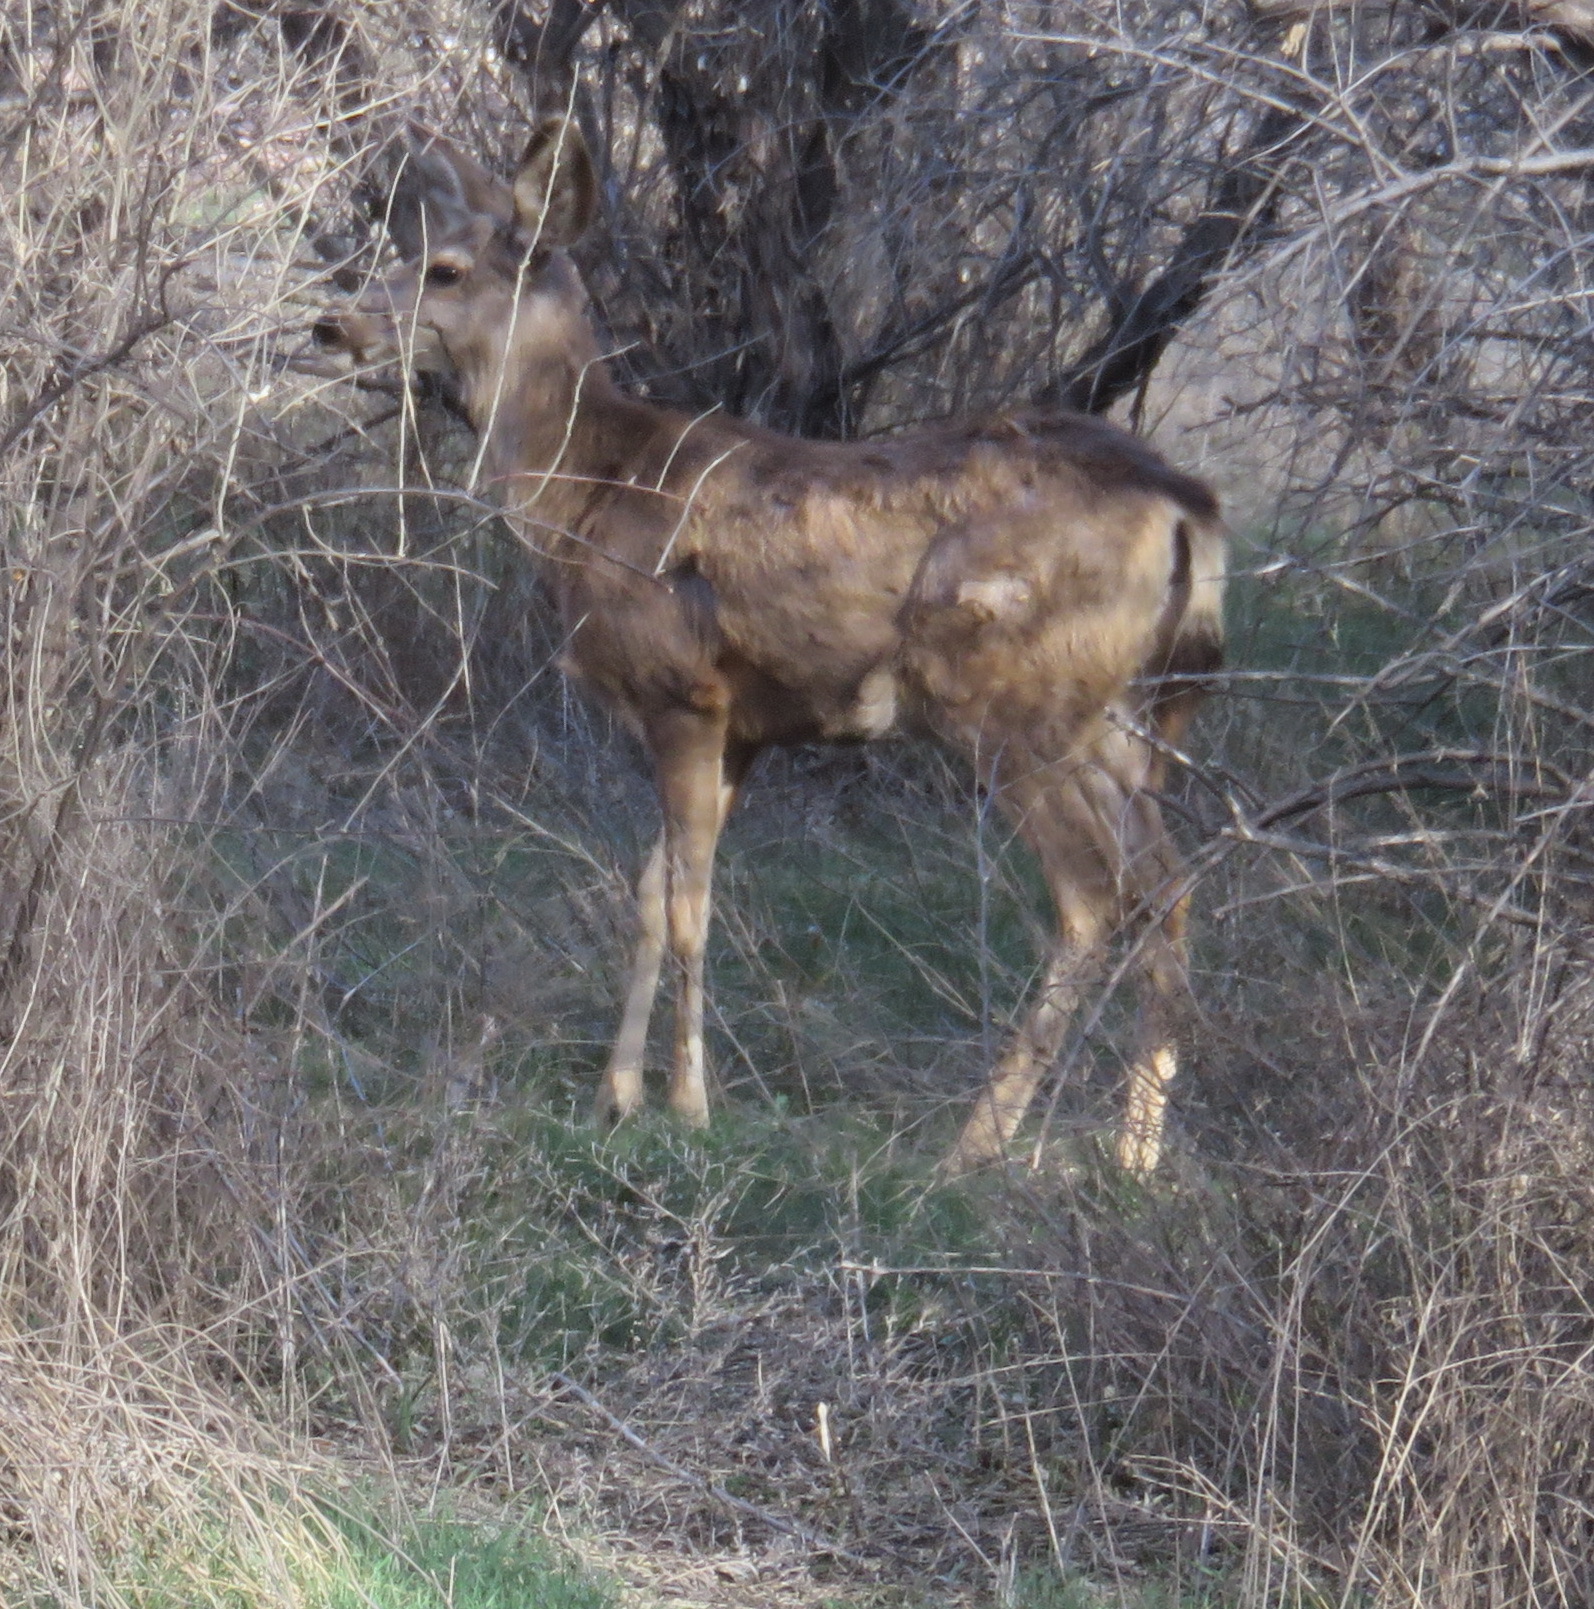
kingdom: Animalia
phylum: Chordata
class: Mammalia
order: Artiodactyla
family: Cervidae
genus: Odocoileus
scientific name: Odocoileus hemionus
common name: Mule deer
